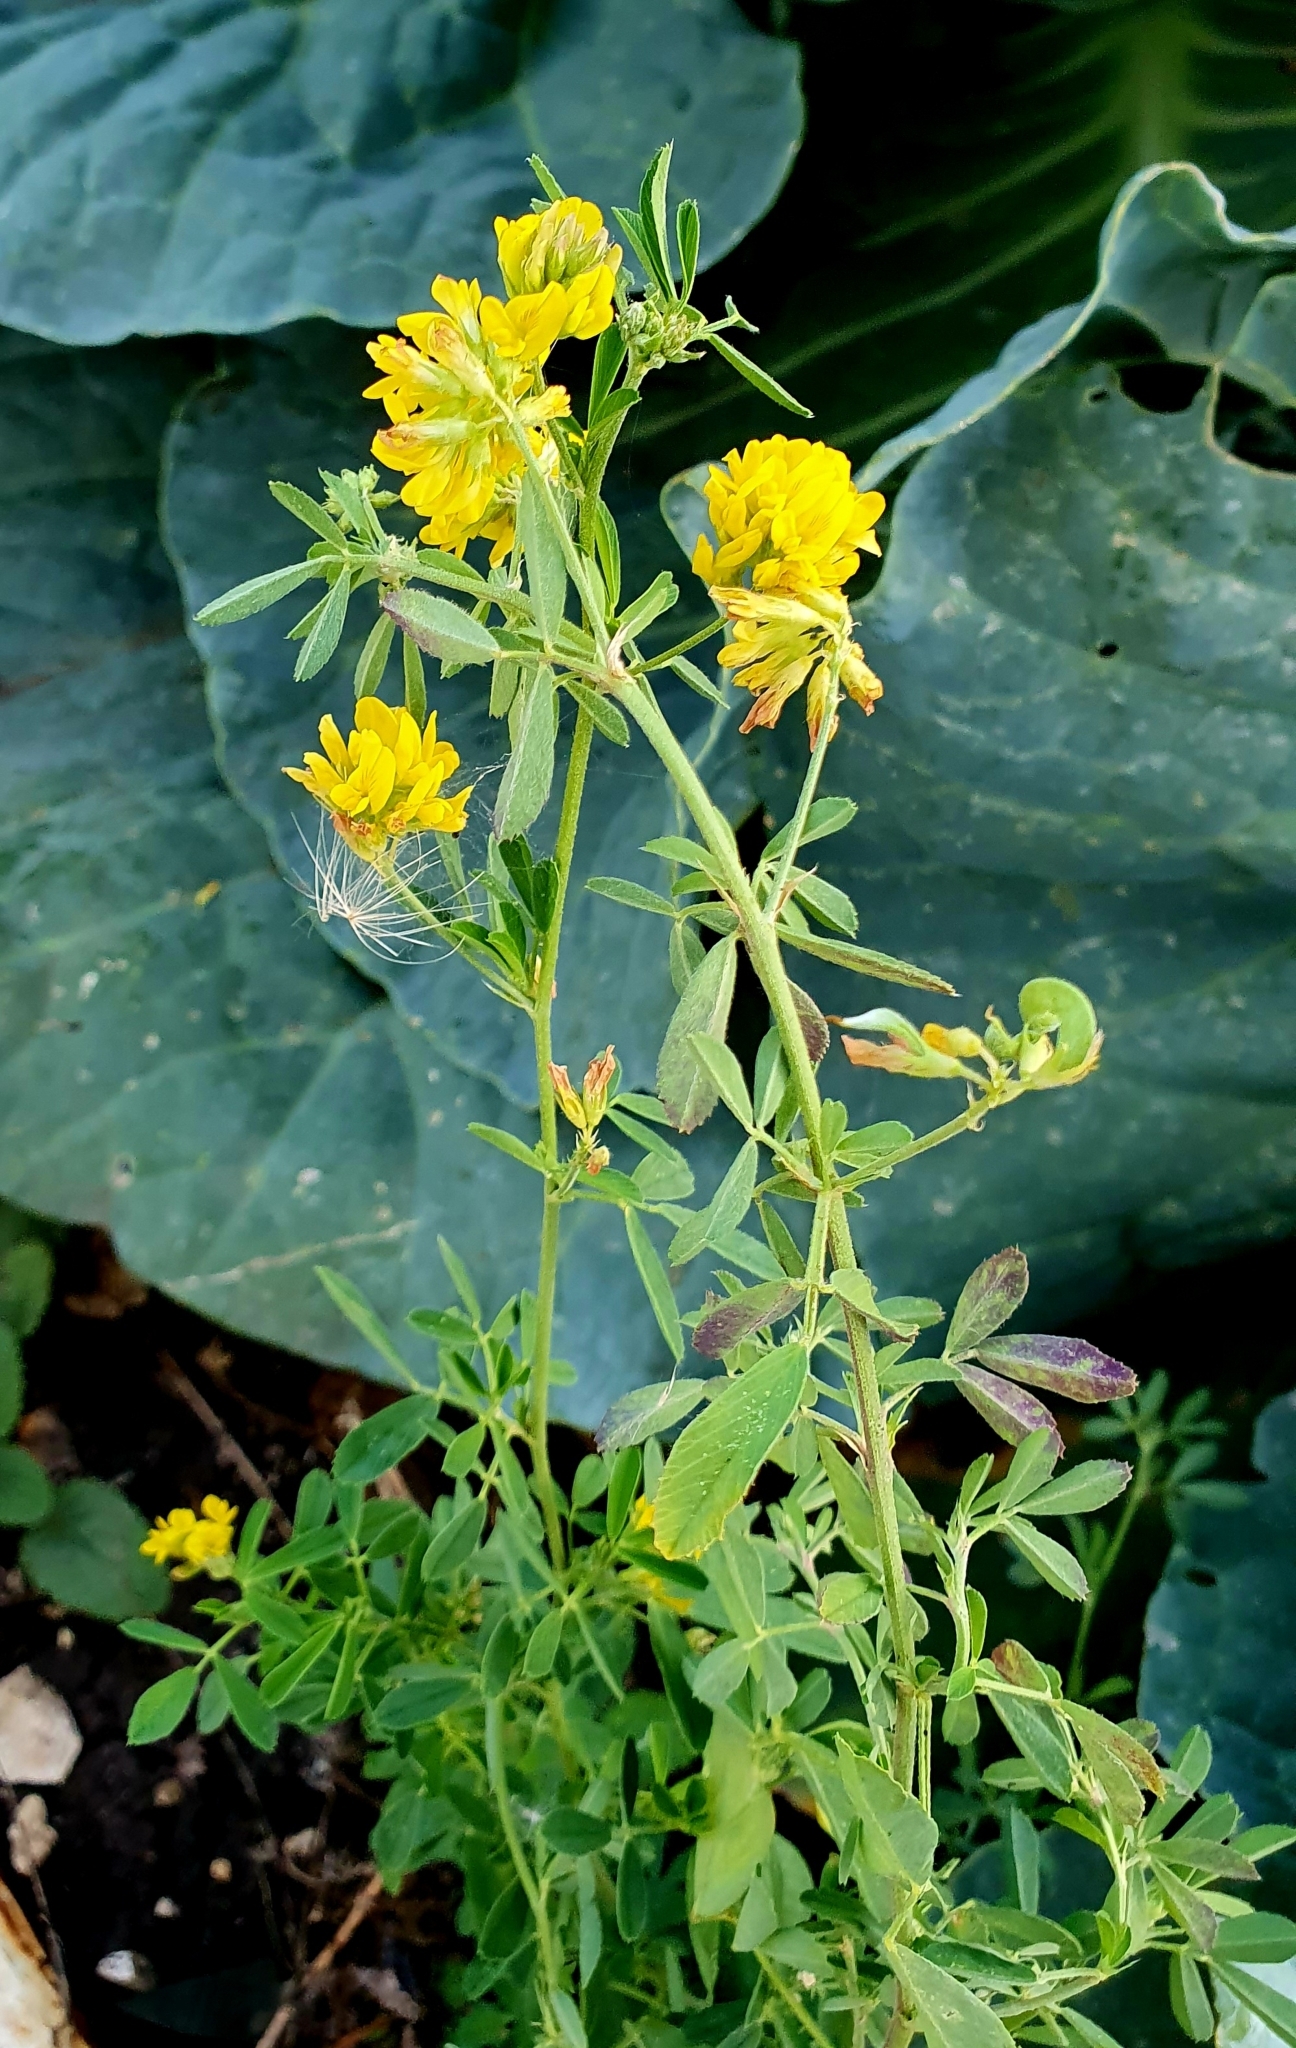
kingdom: Plantae
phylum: Tracheophyta
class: Magnoliopsida
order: Fabales
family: Fabaceae
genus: Medicago
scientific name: Medicago falcata
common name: Sickle medick
